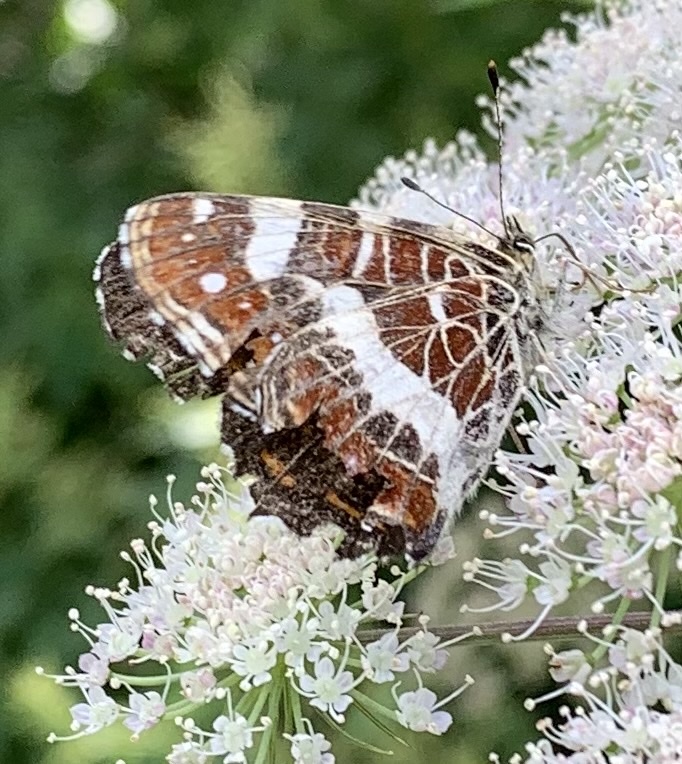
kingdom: Animalia
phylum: Arthropoda
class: Insecta
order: Lepidoptera
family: Nymphalidae
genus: Araschnia
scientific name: Araschnia levana
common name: Map butterfly
